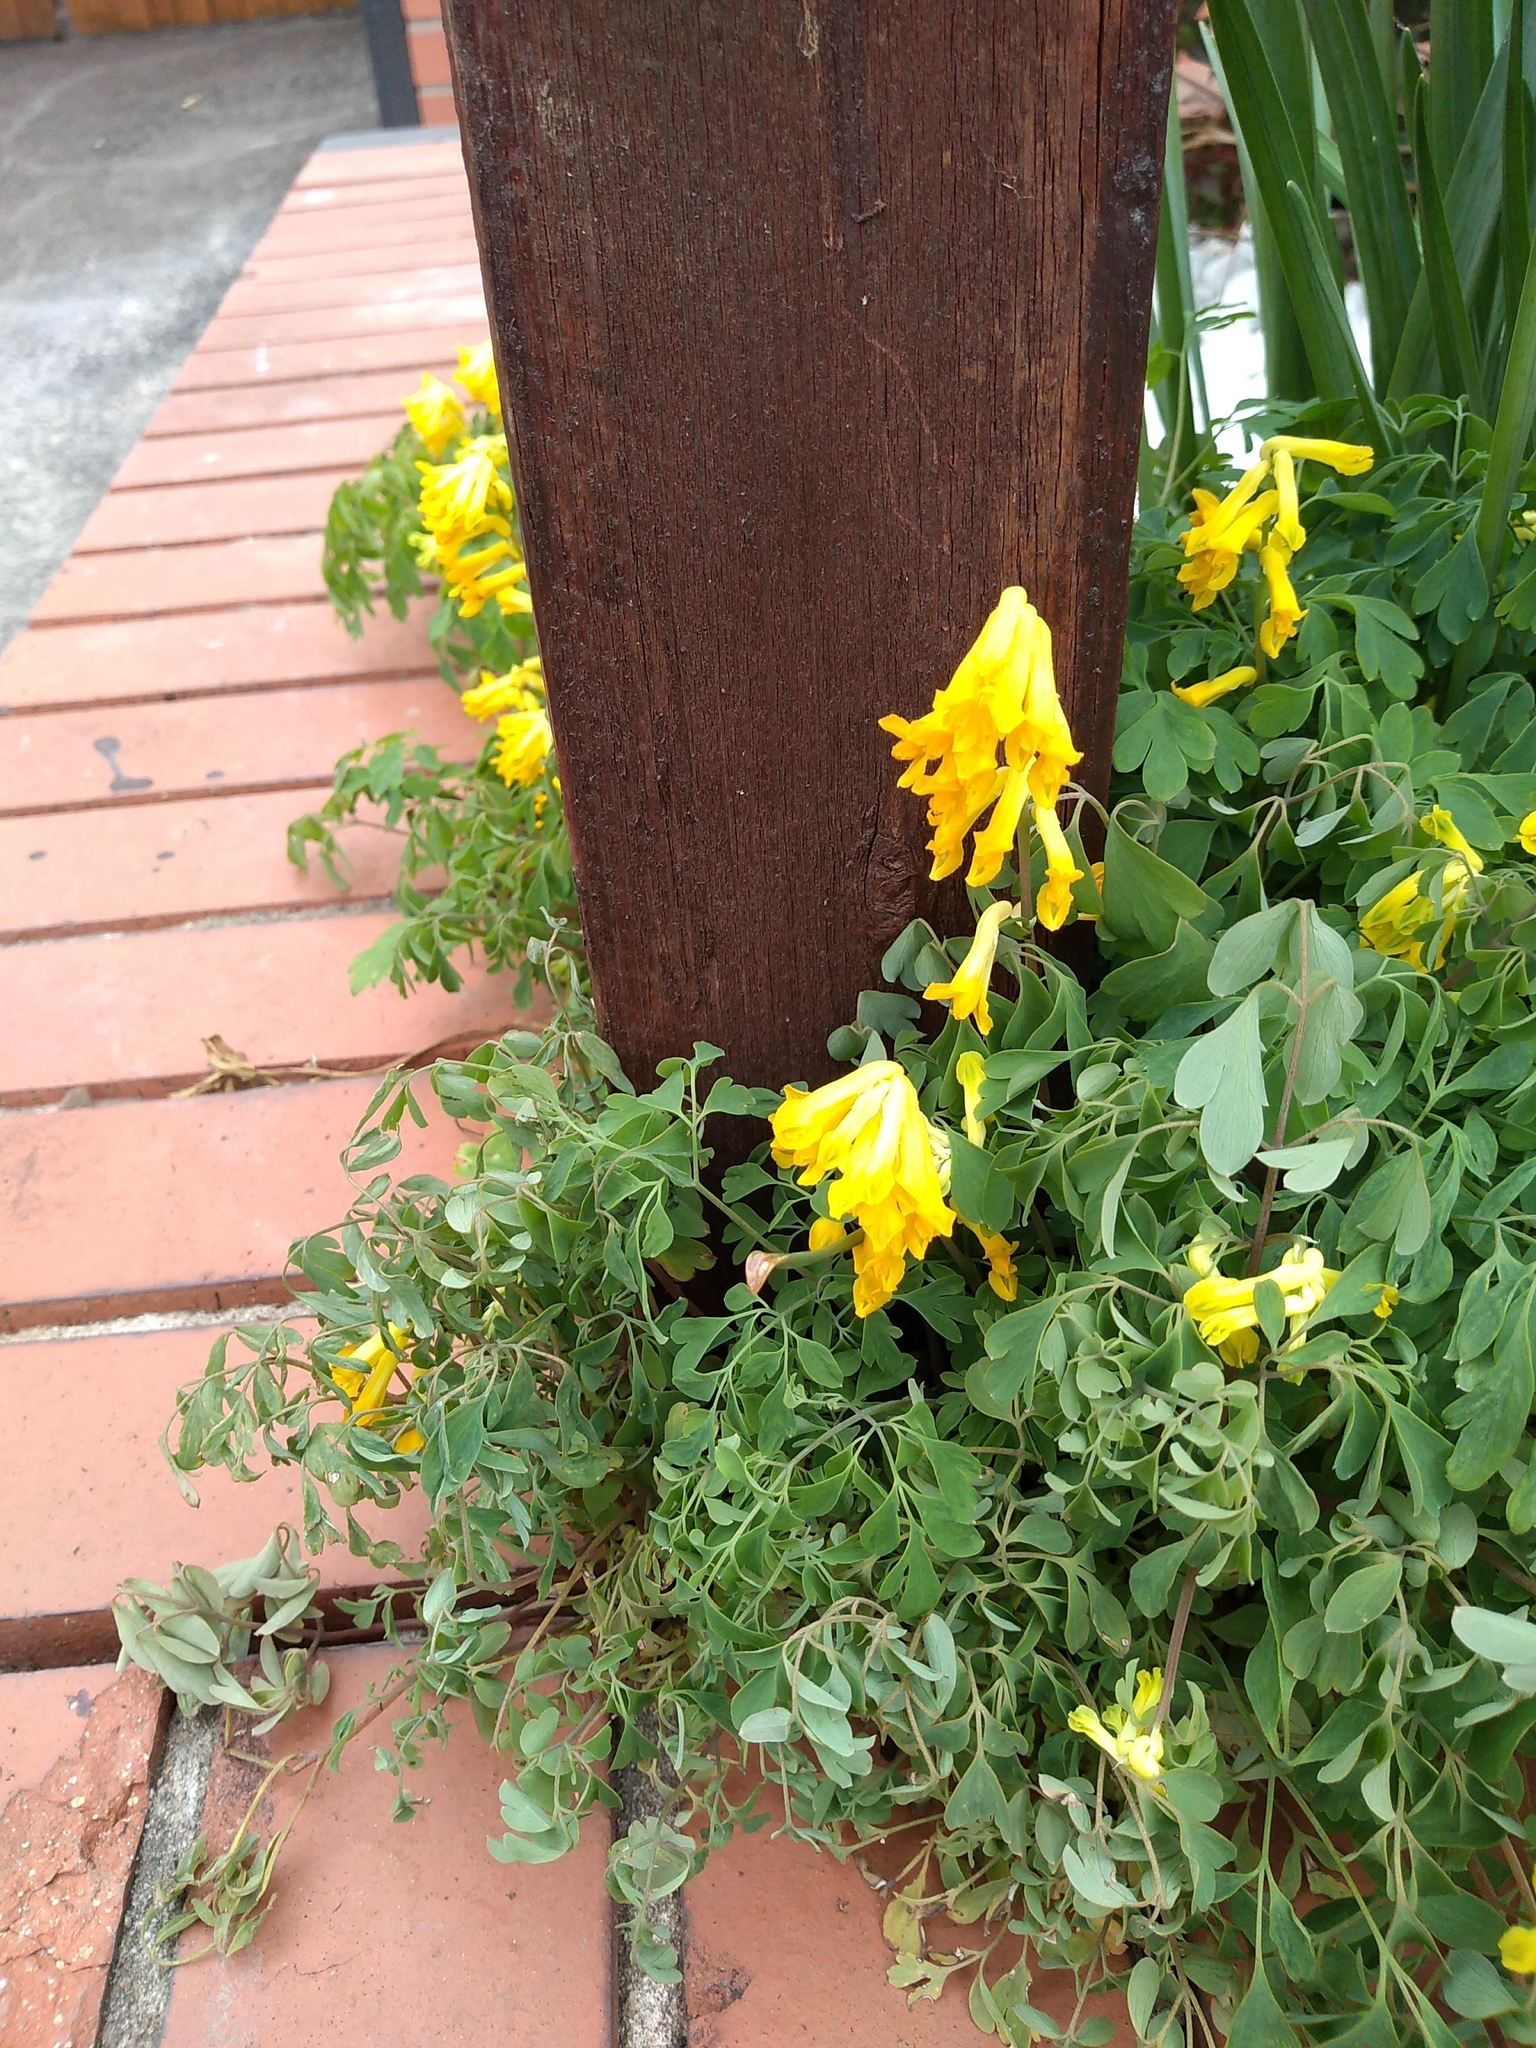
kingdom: Plantae
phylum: Tracheophyta
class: Magnoliopsida
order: Ranunculales
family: Papaveraceae
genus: Pseudofumaria
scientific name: Pseudofumaria lutea
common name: Yellow corydalis
